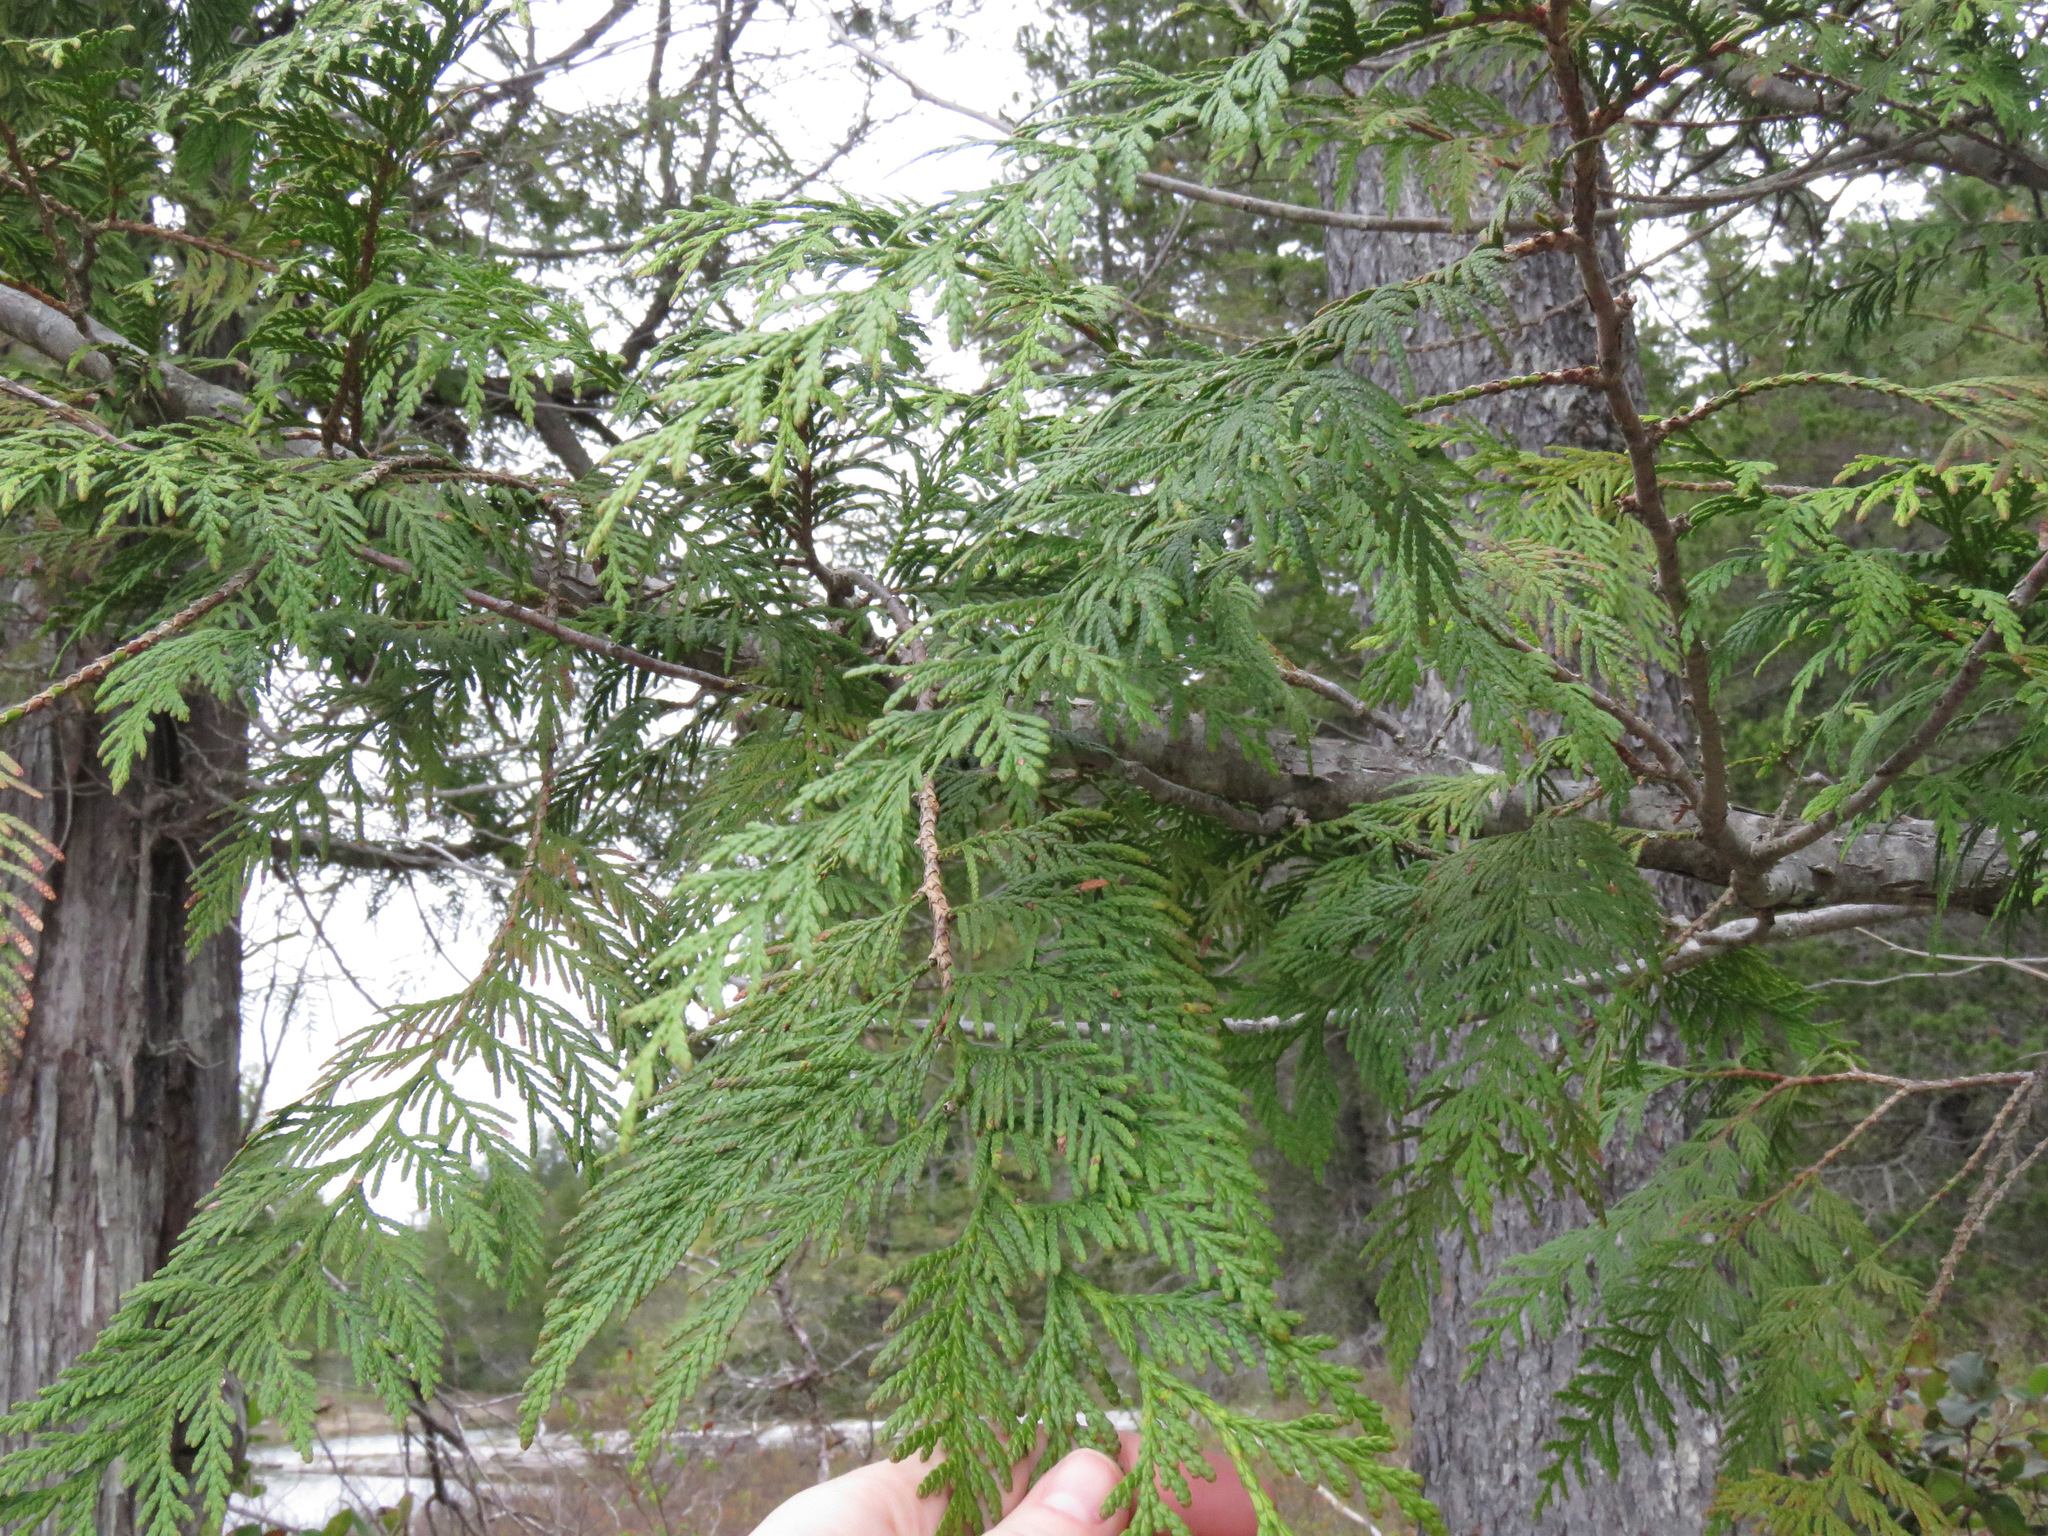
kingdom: Plantae
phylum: Tracheophyta
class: Pinopsida
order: Pinales
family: Cupressaceae
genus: Thuja
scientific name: Thuja plicata
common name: Western red-cedar
